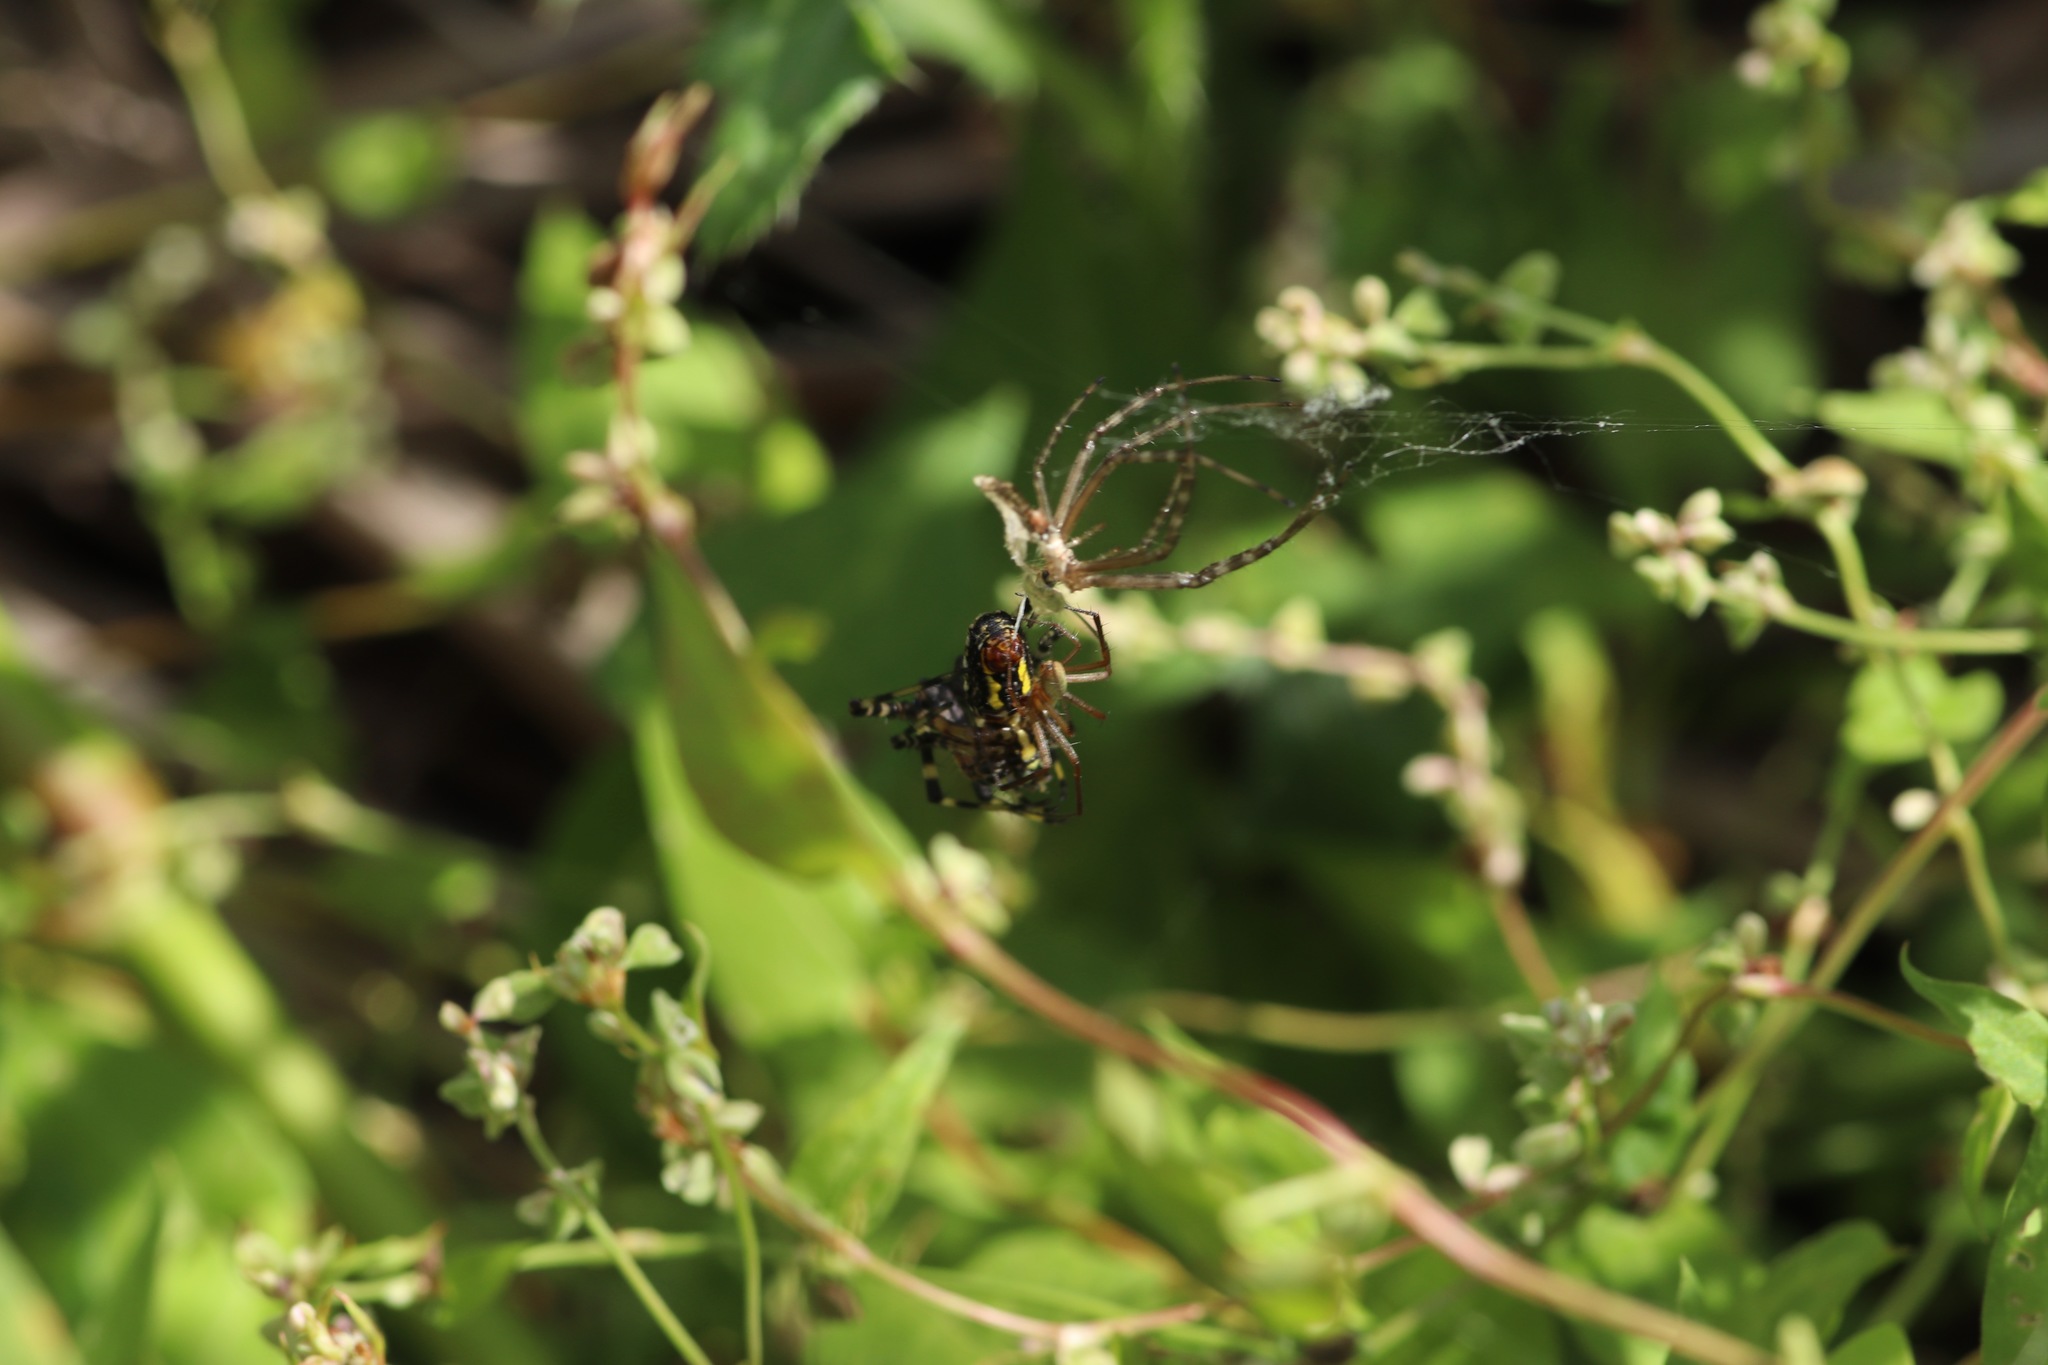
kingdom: Animalia
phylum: Arthropoda
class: Arachnida
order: Araneae
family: Araneidae
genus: Argiope
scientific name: Argiope aurantia
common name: Orb weavers
